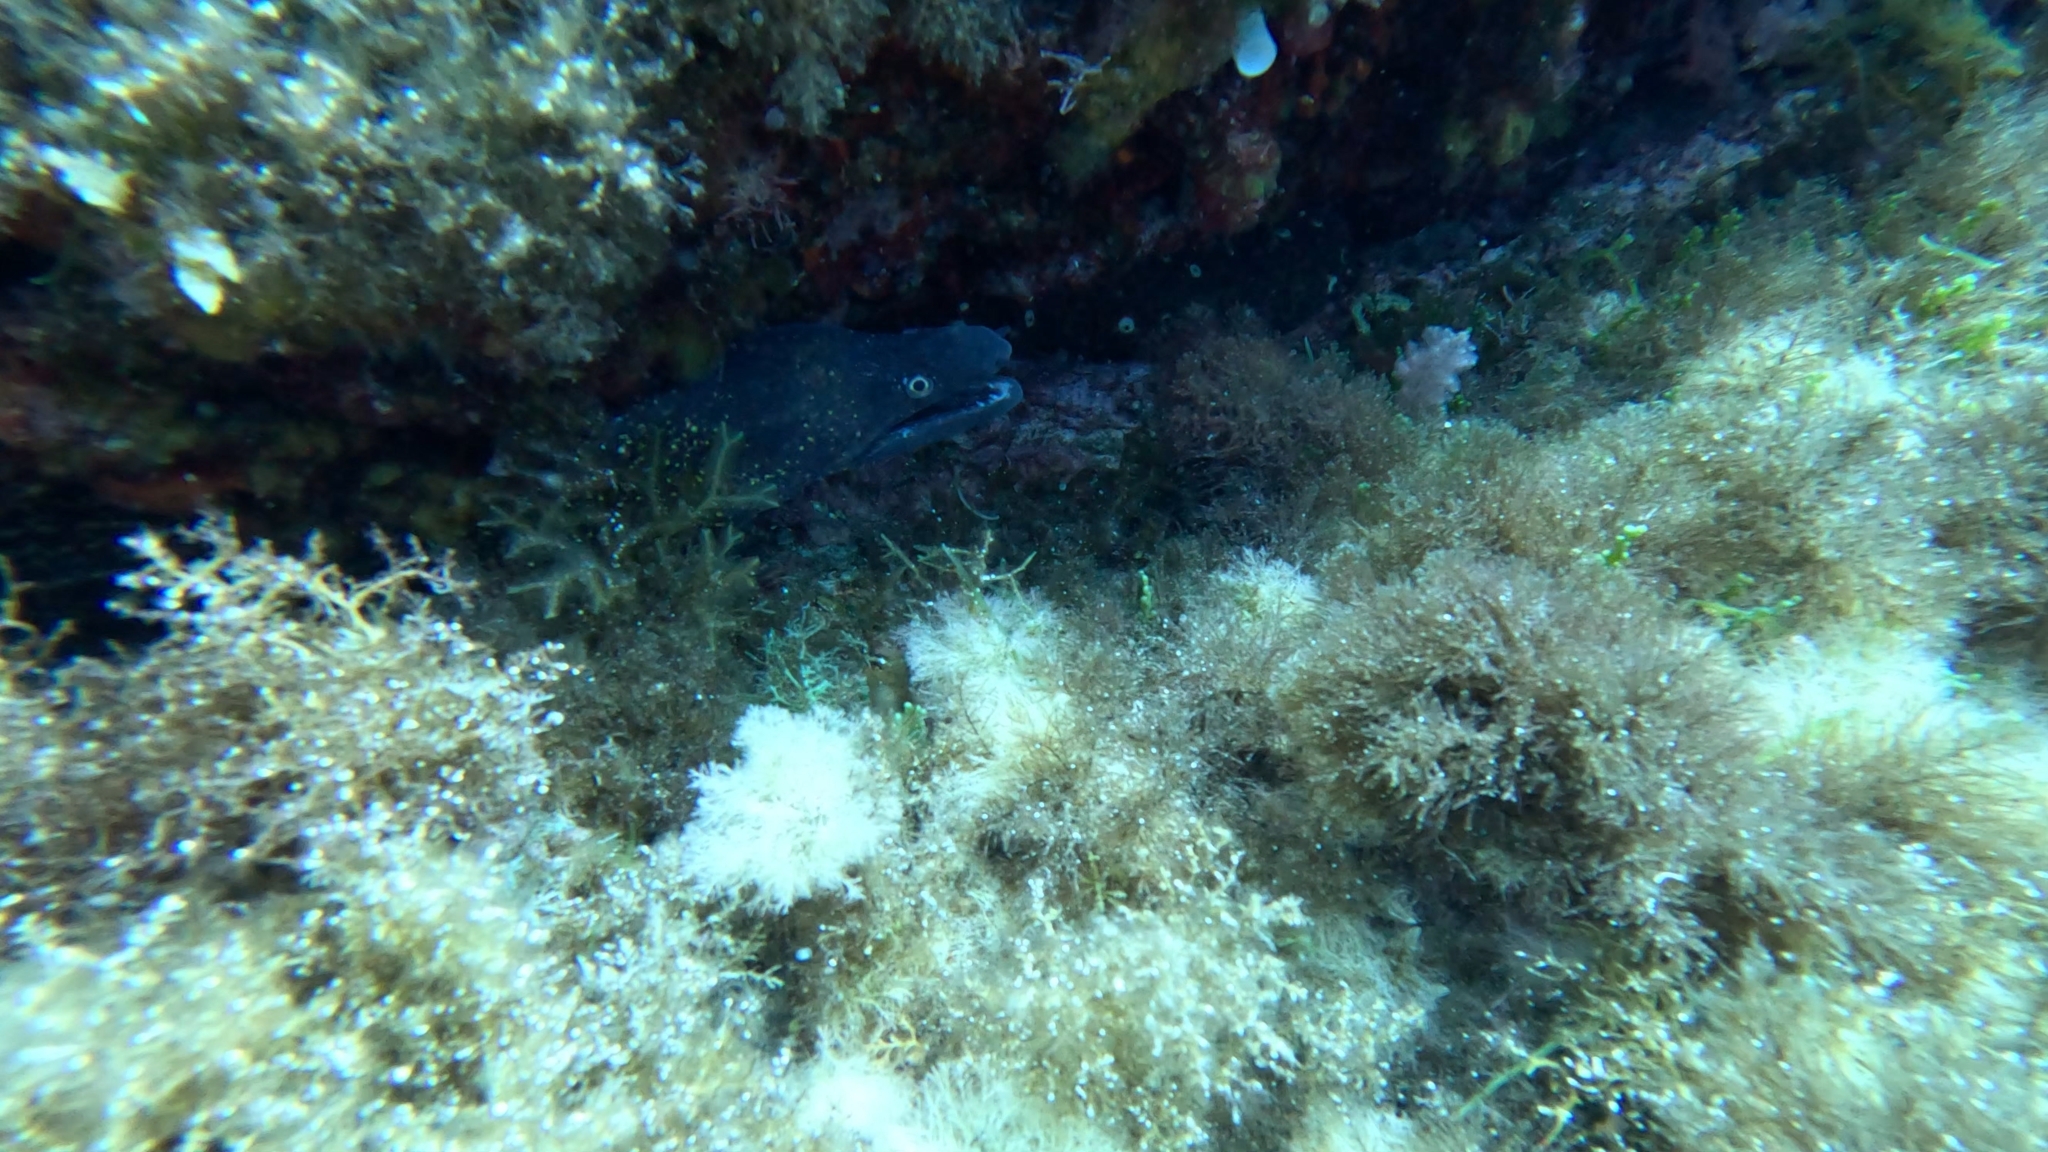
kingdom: Animalia
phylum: Chordata
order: Anguilliformes
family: Muraenidae
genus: Muraena
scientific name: Muraena helena
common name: Mediterranean moray
